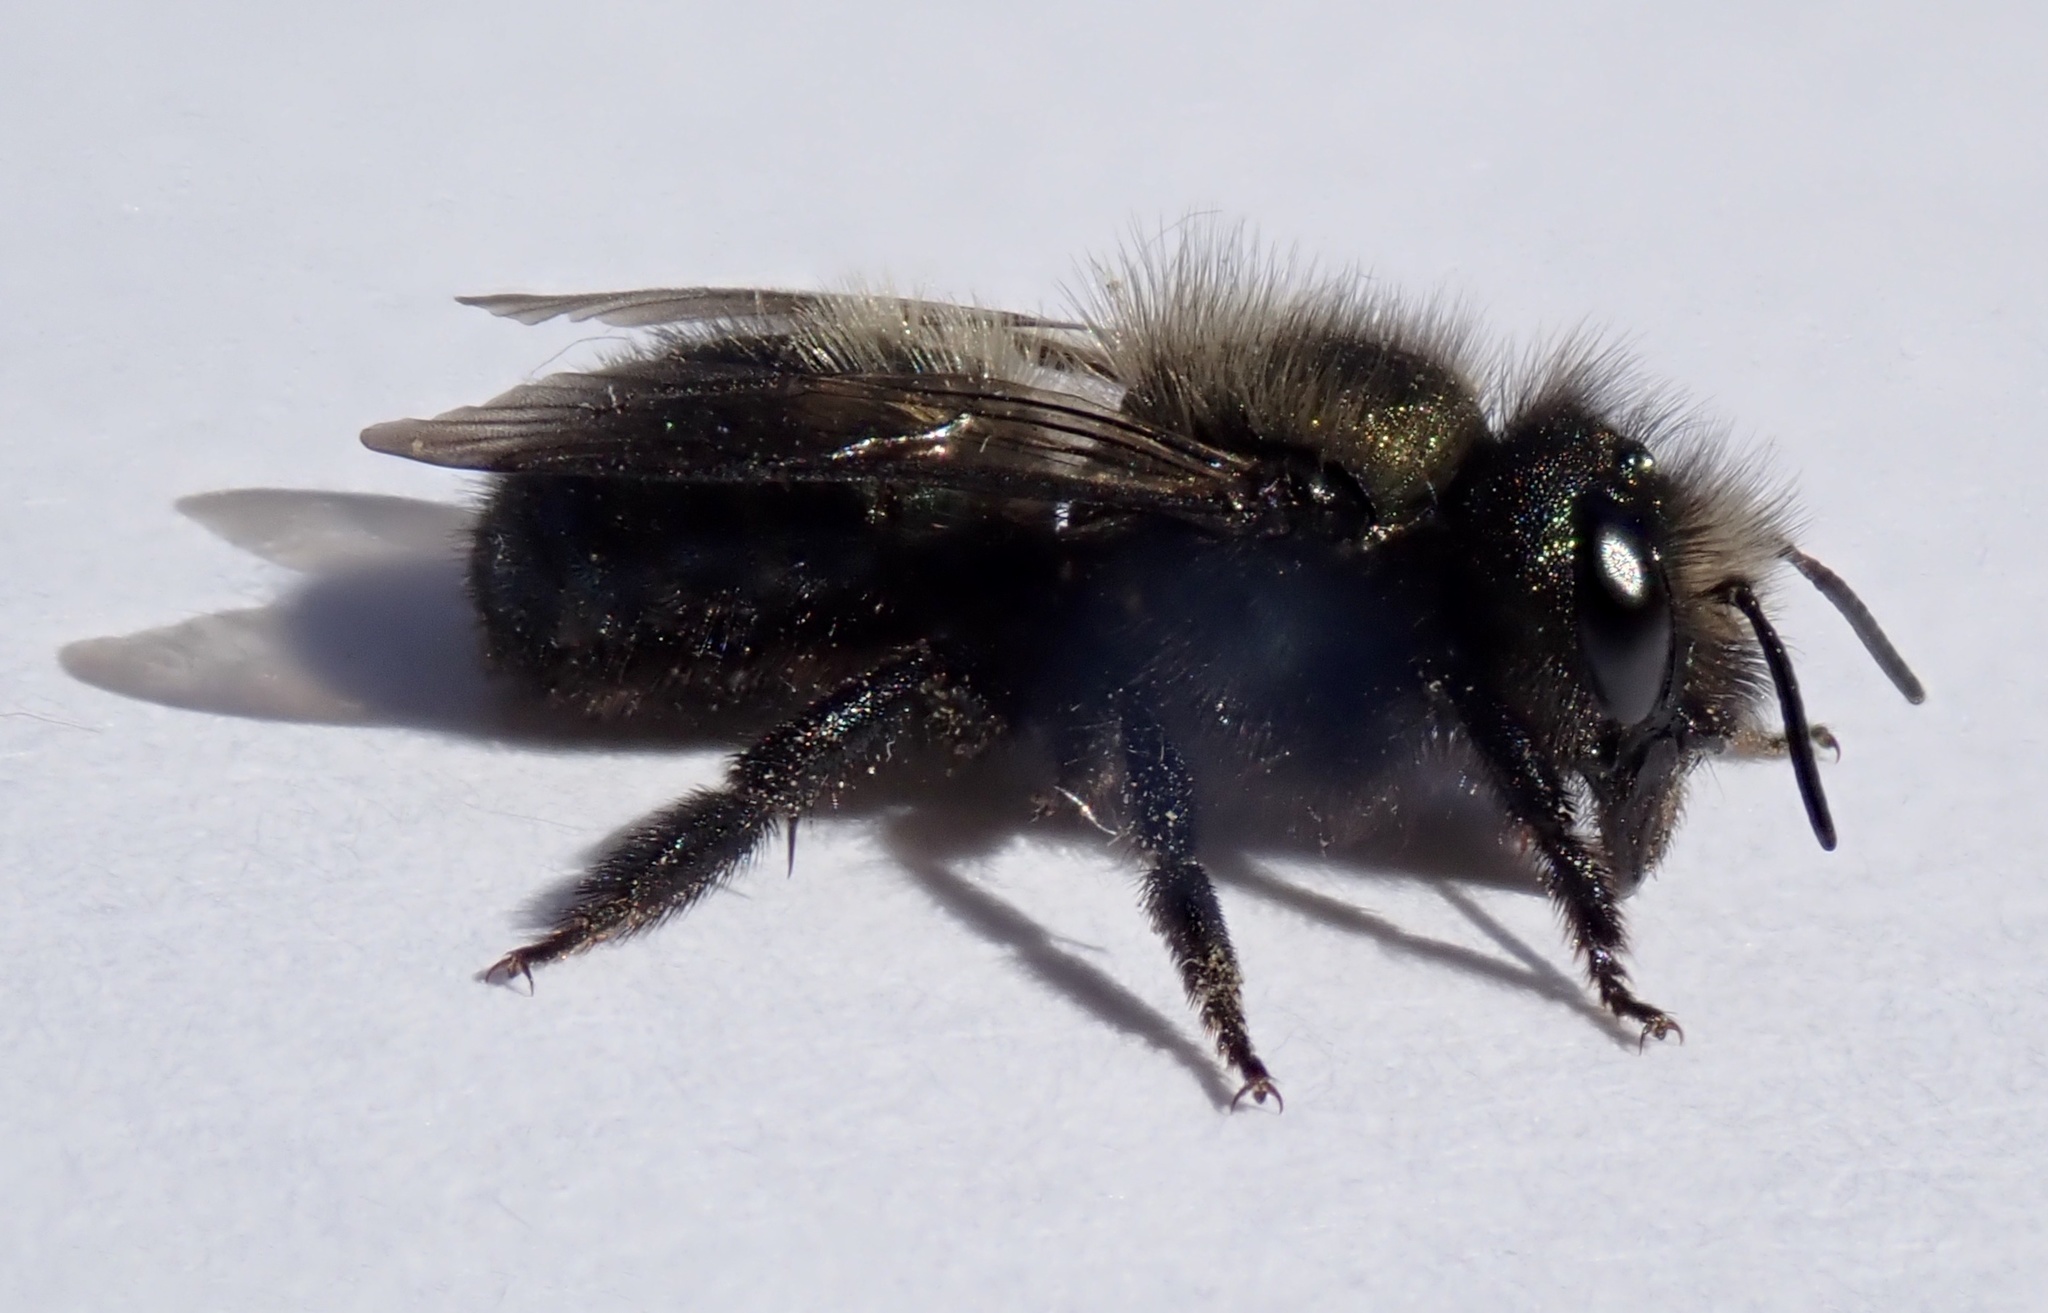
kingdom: Animalia
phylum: Arthropoda
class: Insecta
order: Hymenoptera
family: Megachilidae
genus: Osmia
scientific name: Osmia lignaria
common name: Blue orchard bee
